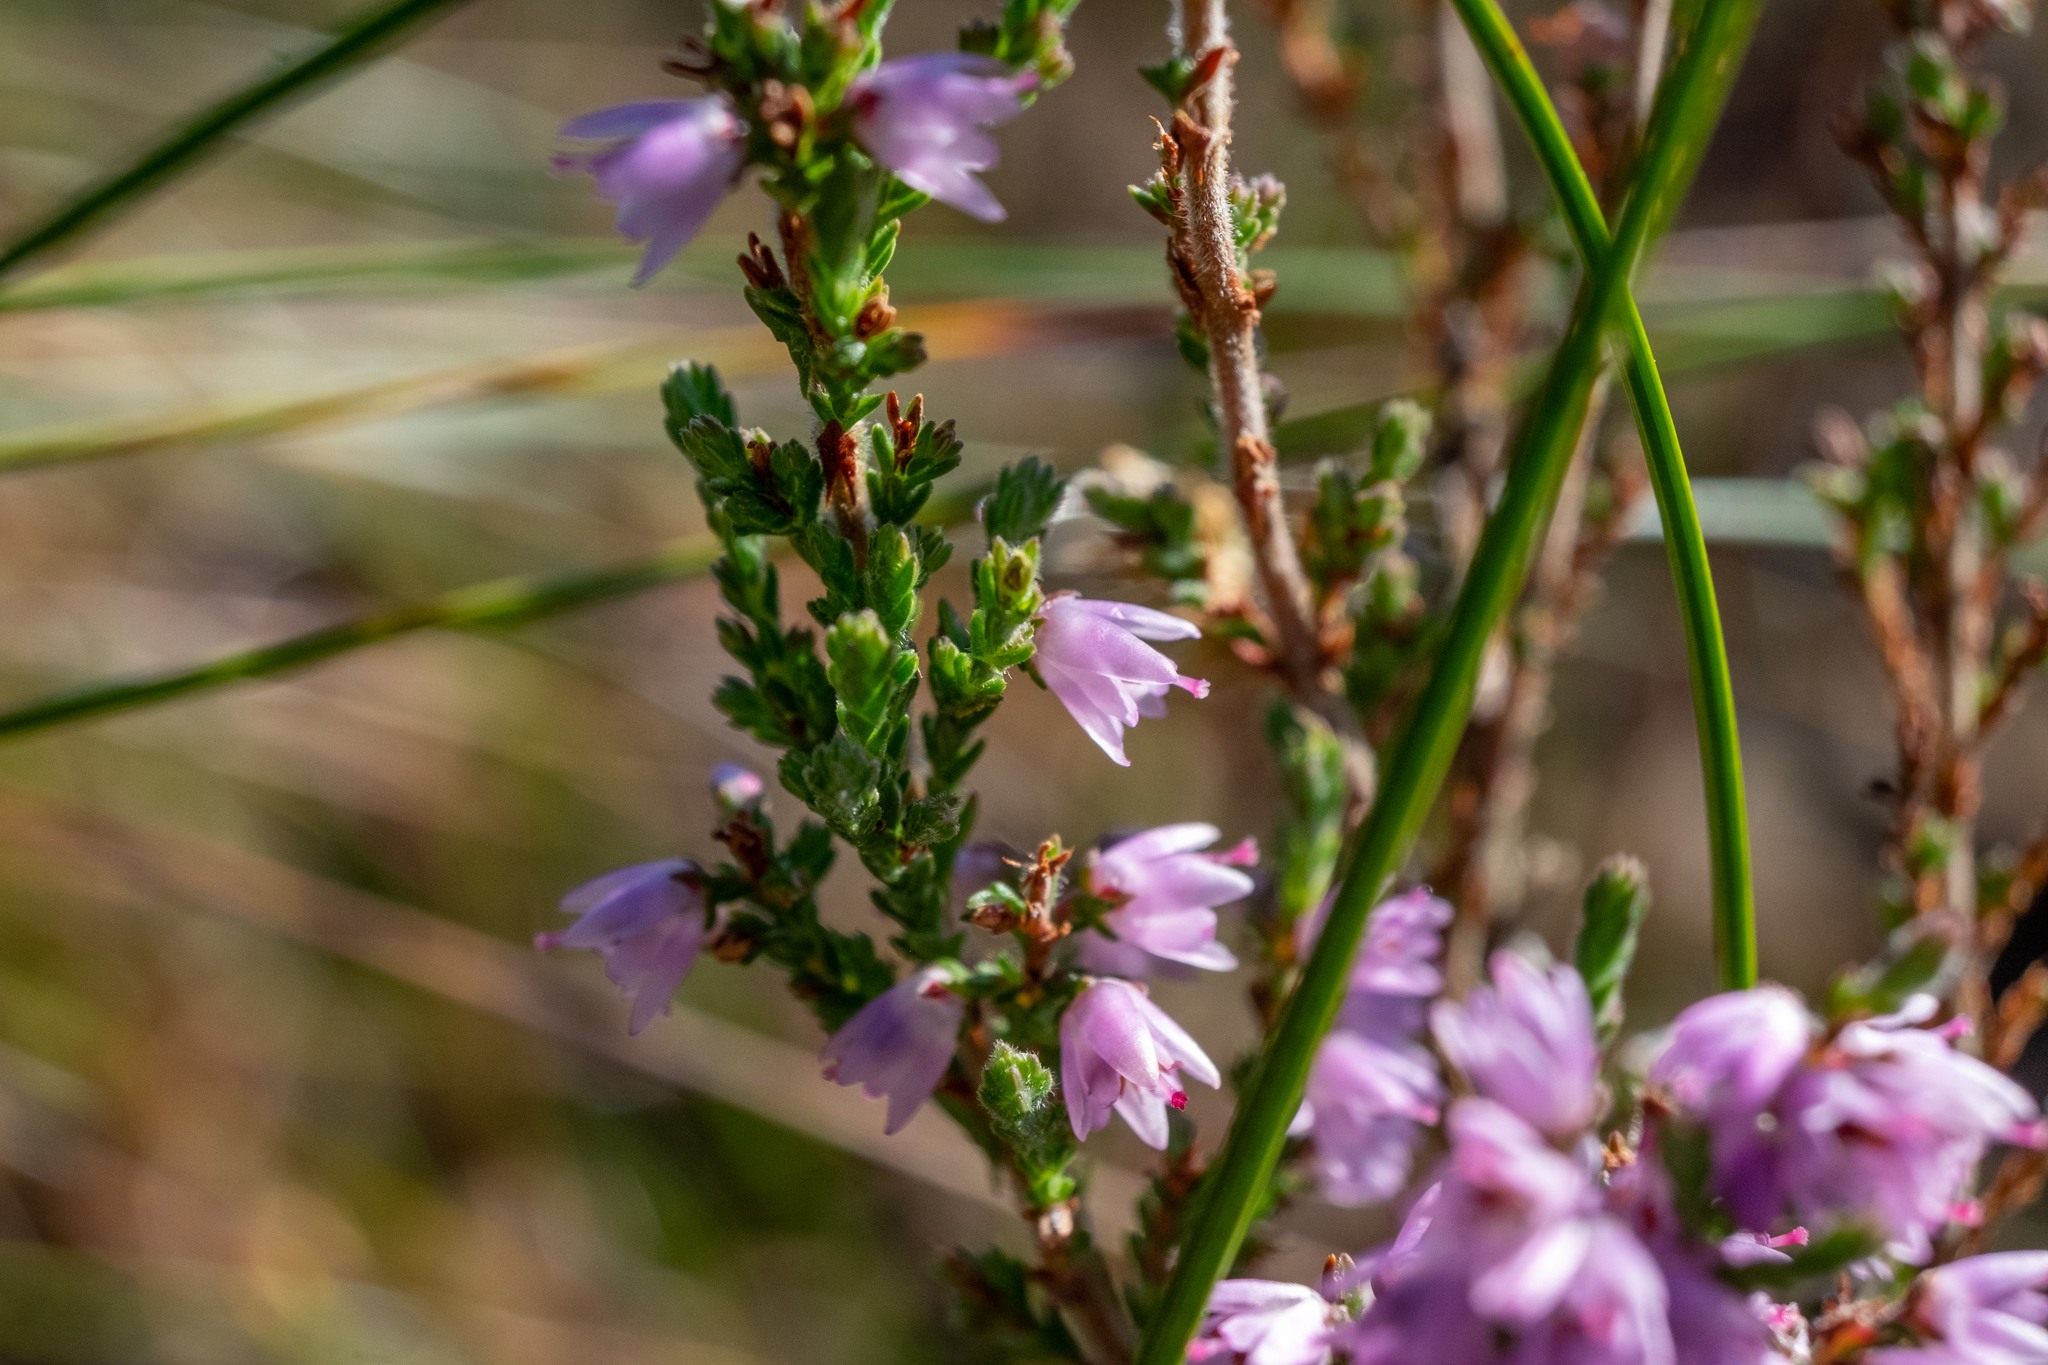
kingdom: Plantae
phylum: Tracheophyta
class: Magnoliopsida
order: Ericales
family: Ericaceae
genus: Calluna
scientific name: Calluna vulgaris
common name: Heather
